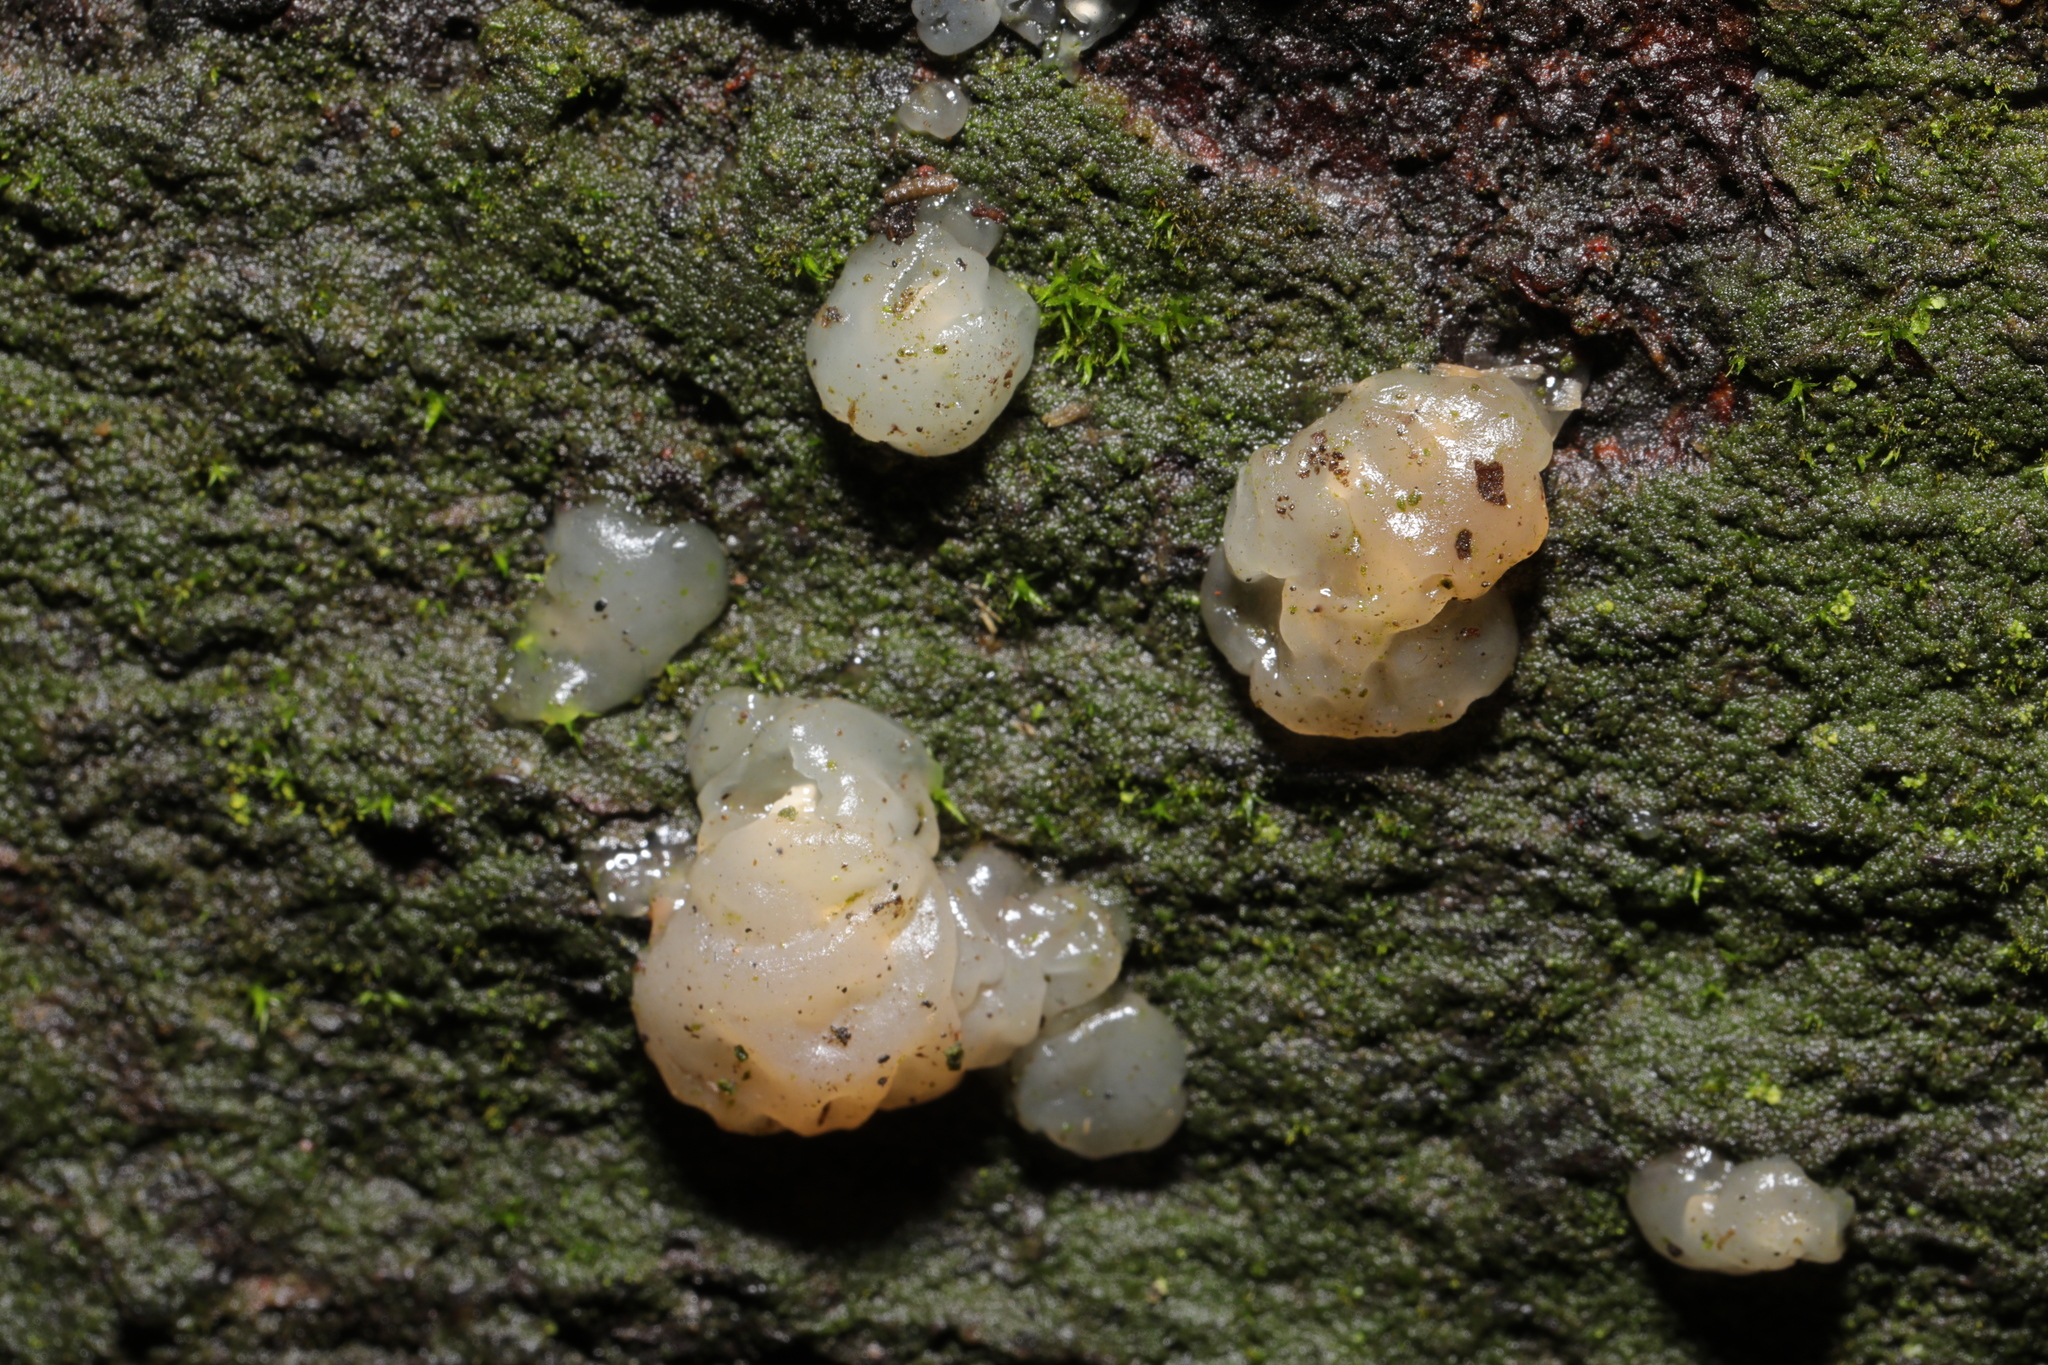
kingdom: Fungi
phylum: Basidiomycota
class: Agaricomycetes
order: Auriculariales
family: Hyaloriaceae
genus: Myxarium
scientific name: Myxarium nucleatum
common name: Crystal brain fungus
